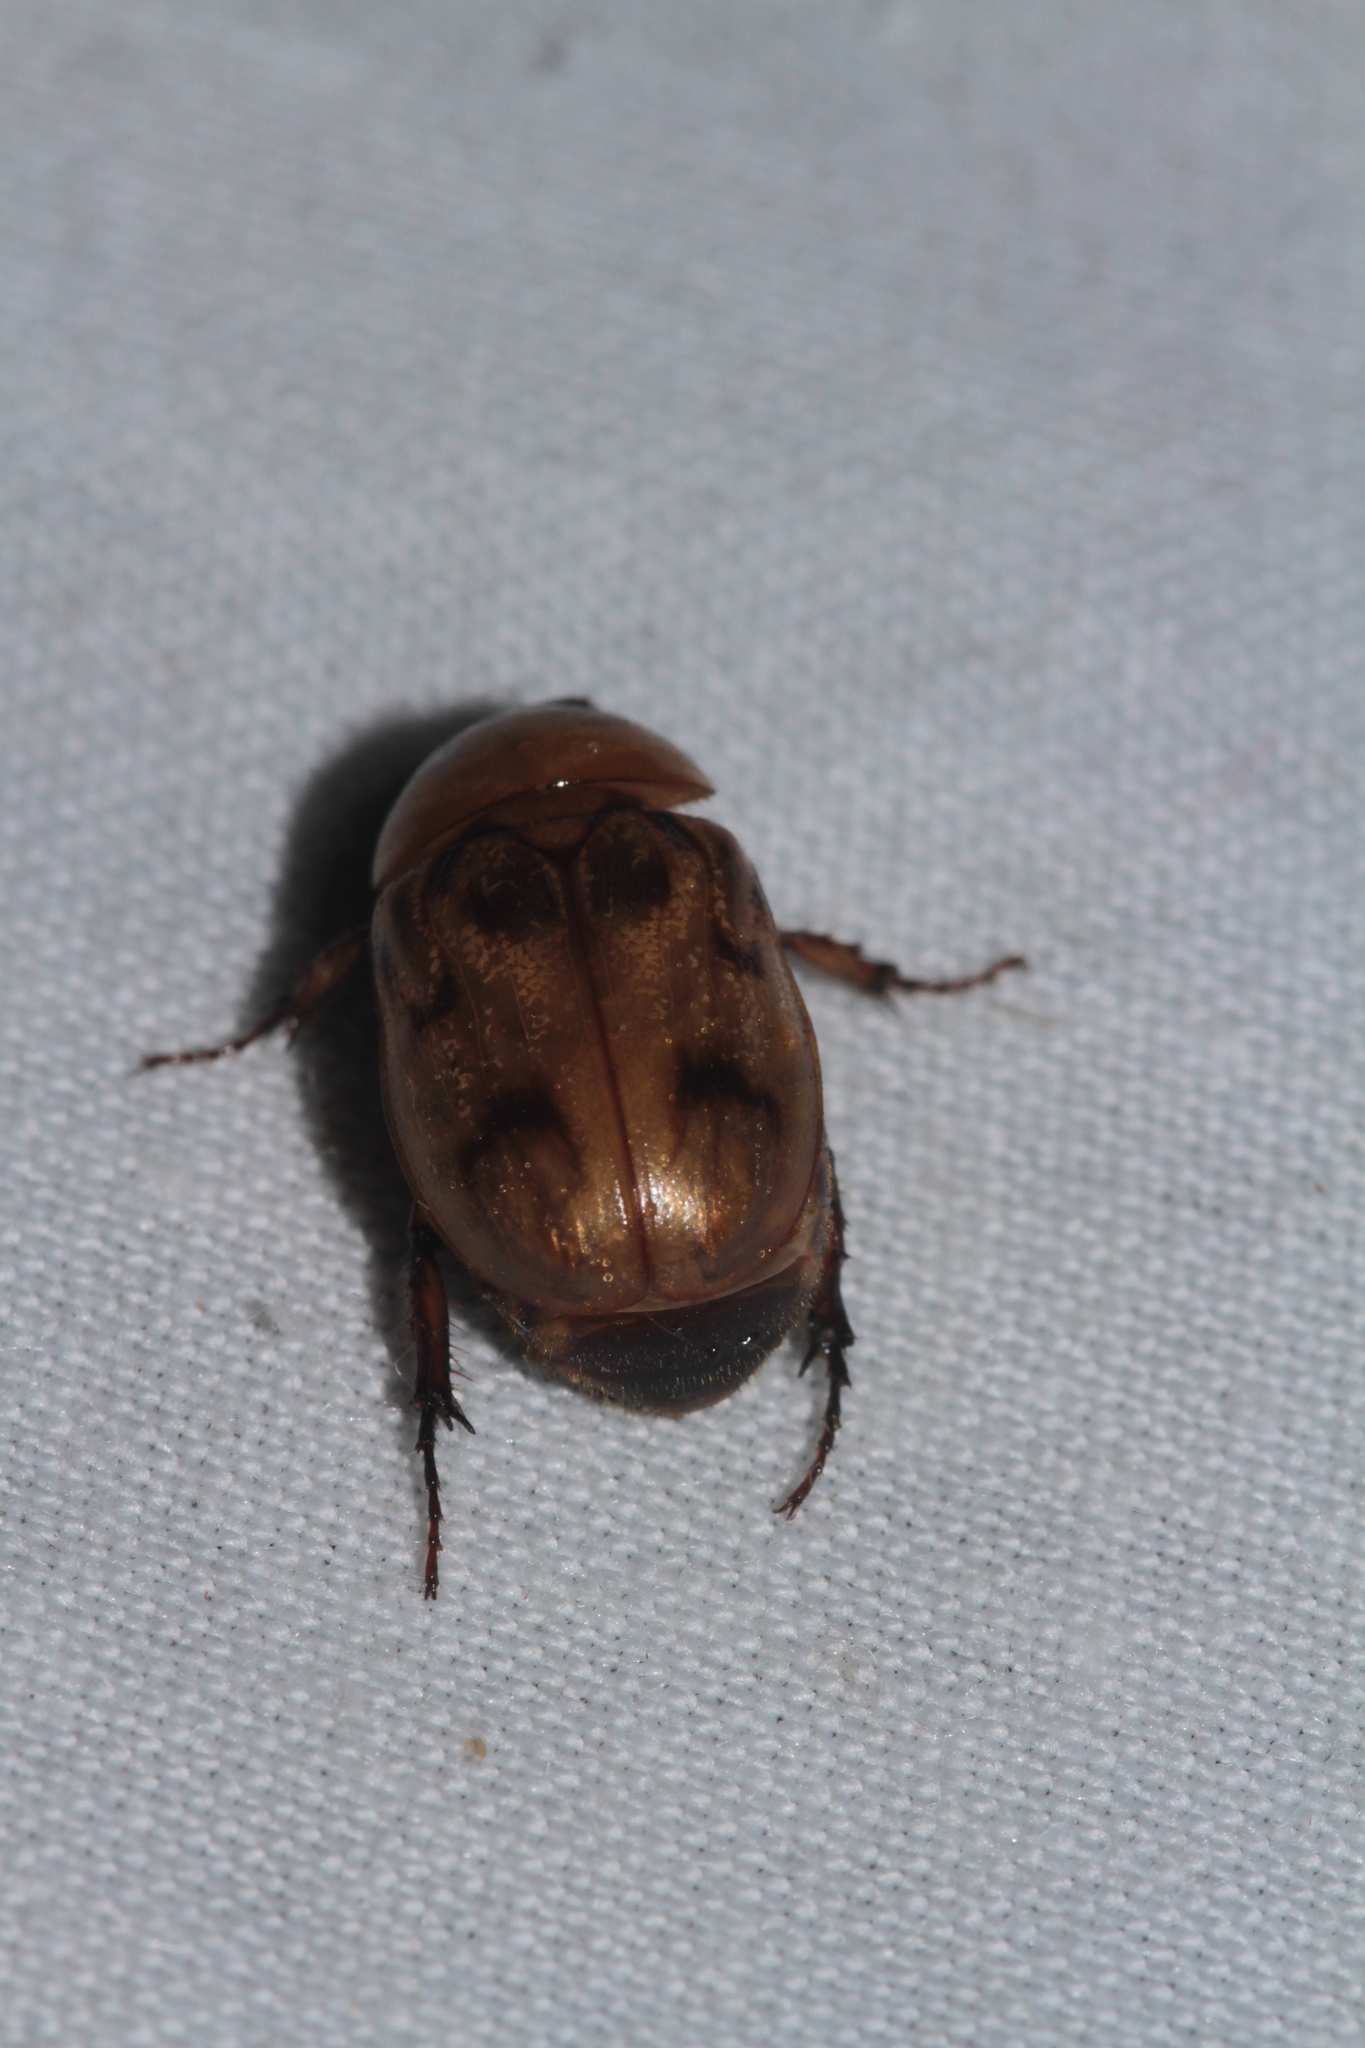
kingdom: Animalia
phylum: Arthropoda
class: Insecta
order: Coleoptera
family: Scarabaeidae
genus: Cyclocephala
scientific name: Cyclocephala diluta
